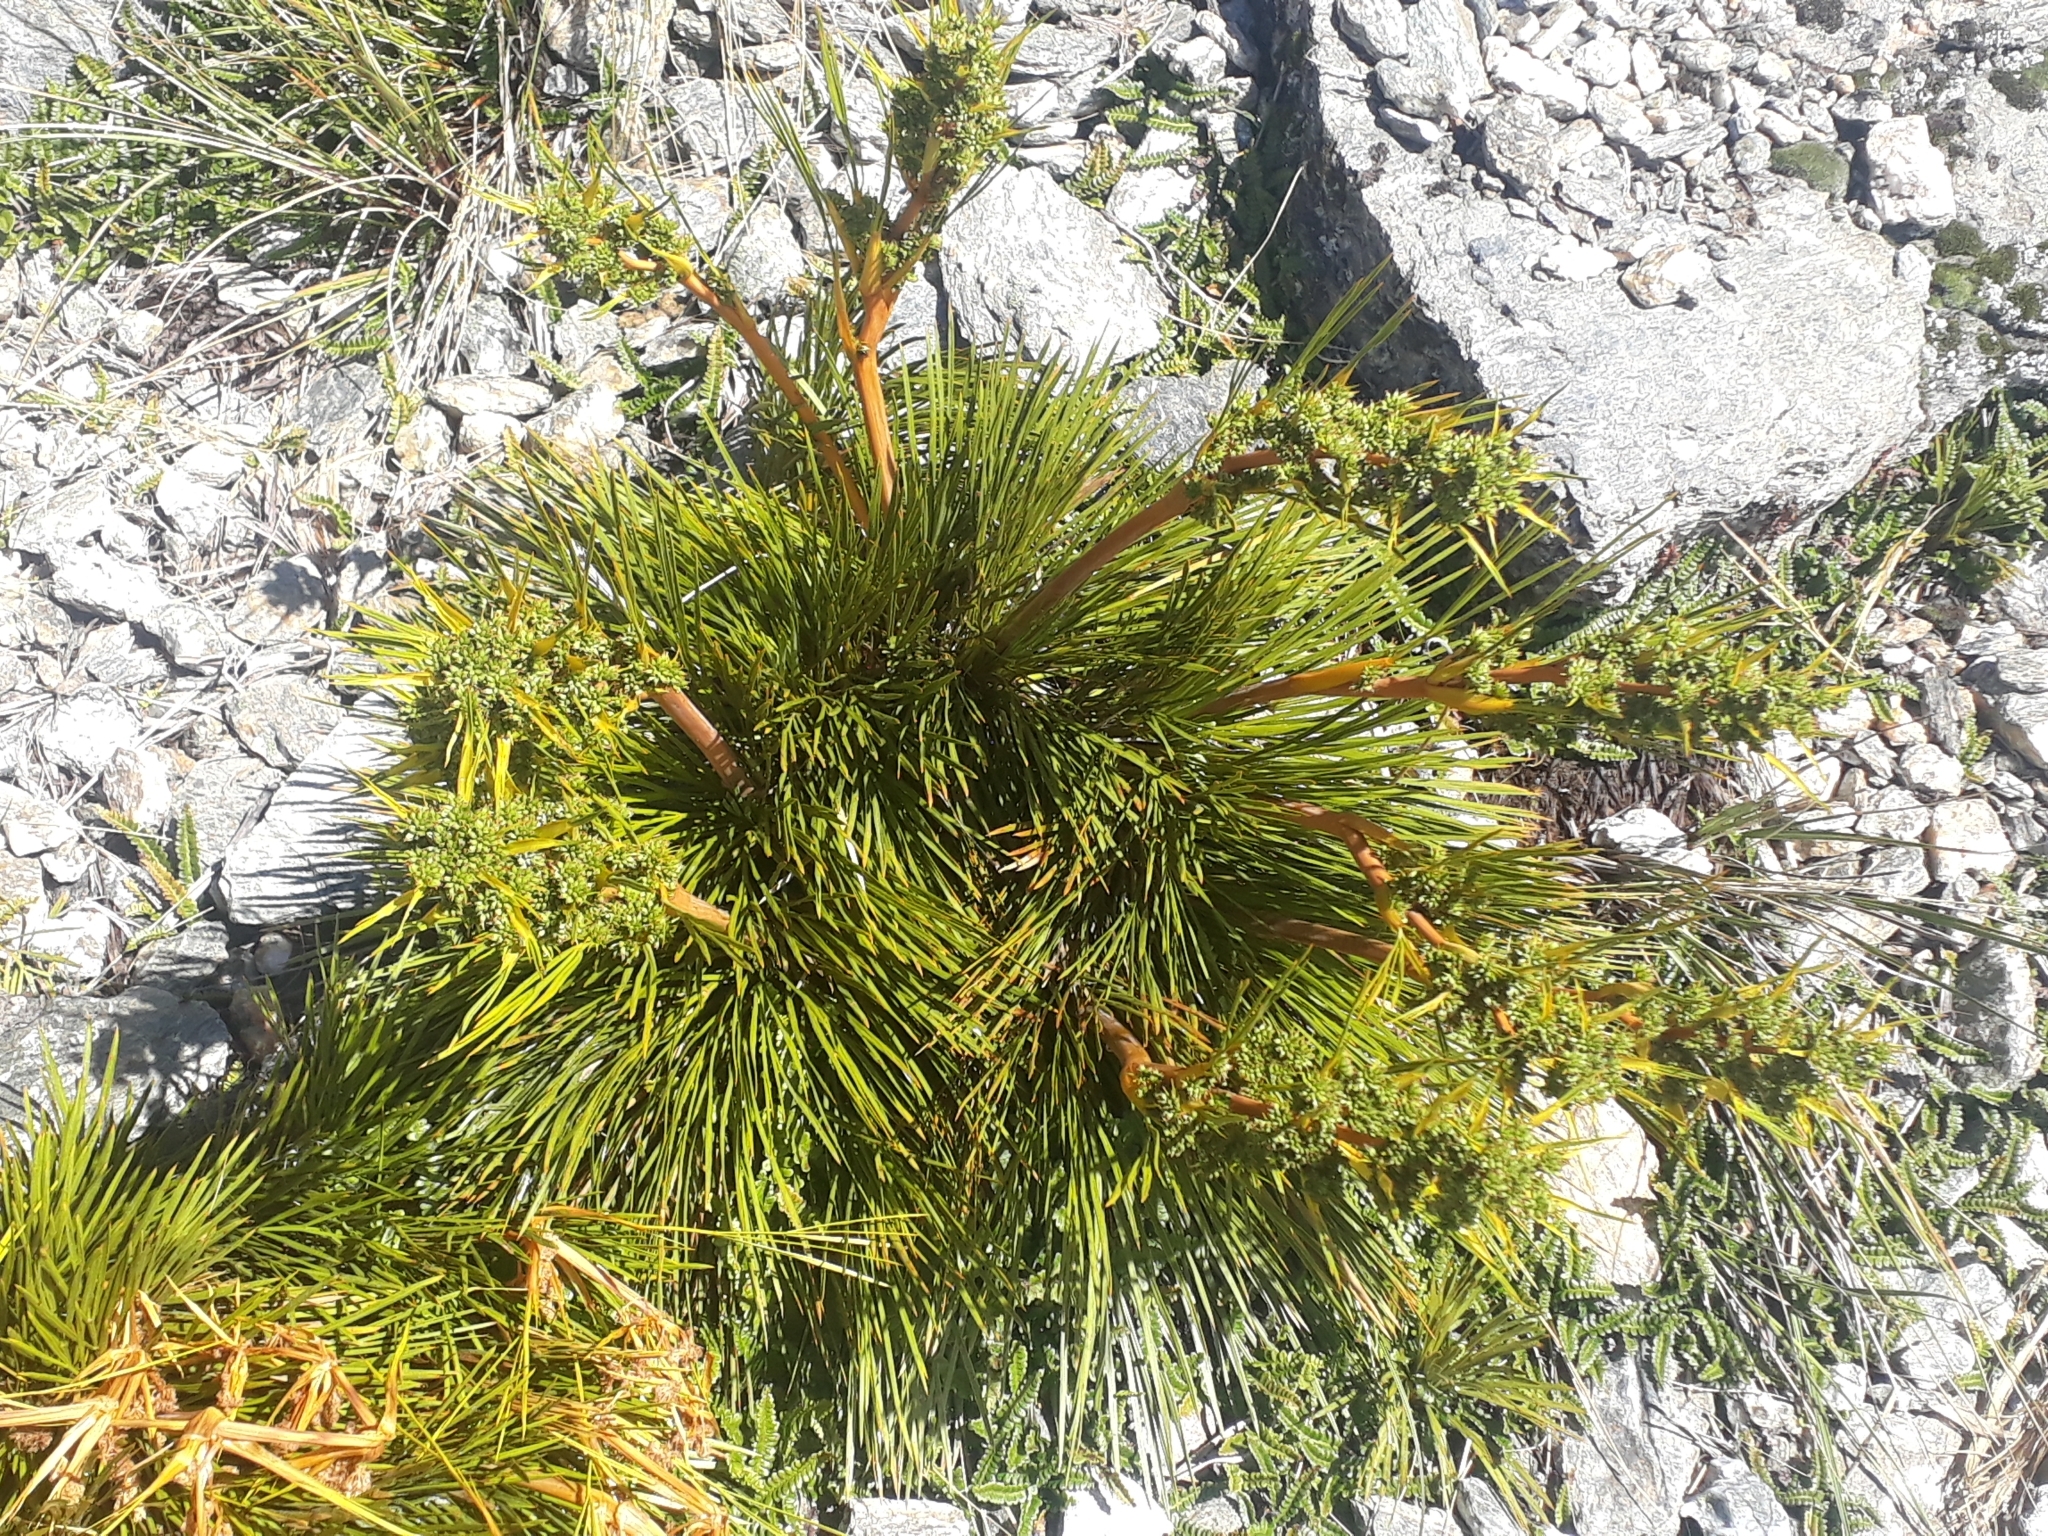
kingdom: Plantae
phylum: Tracheophyta
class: Magnoliopsida
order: Apiales
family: Apiaceae
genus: Aciphylla
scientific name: Aciphylla montana
